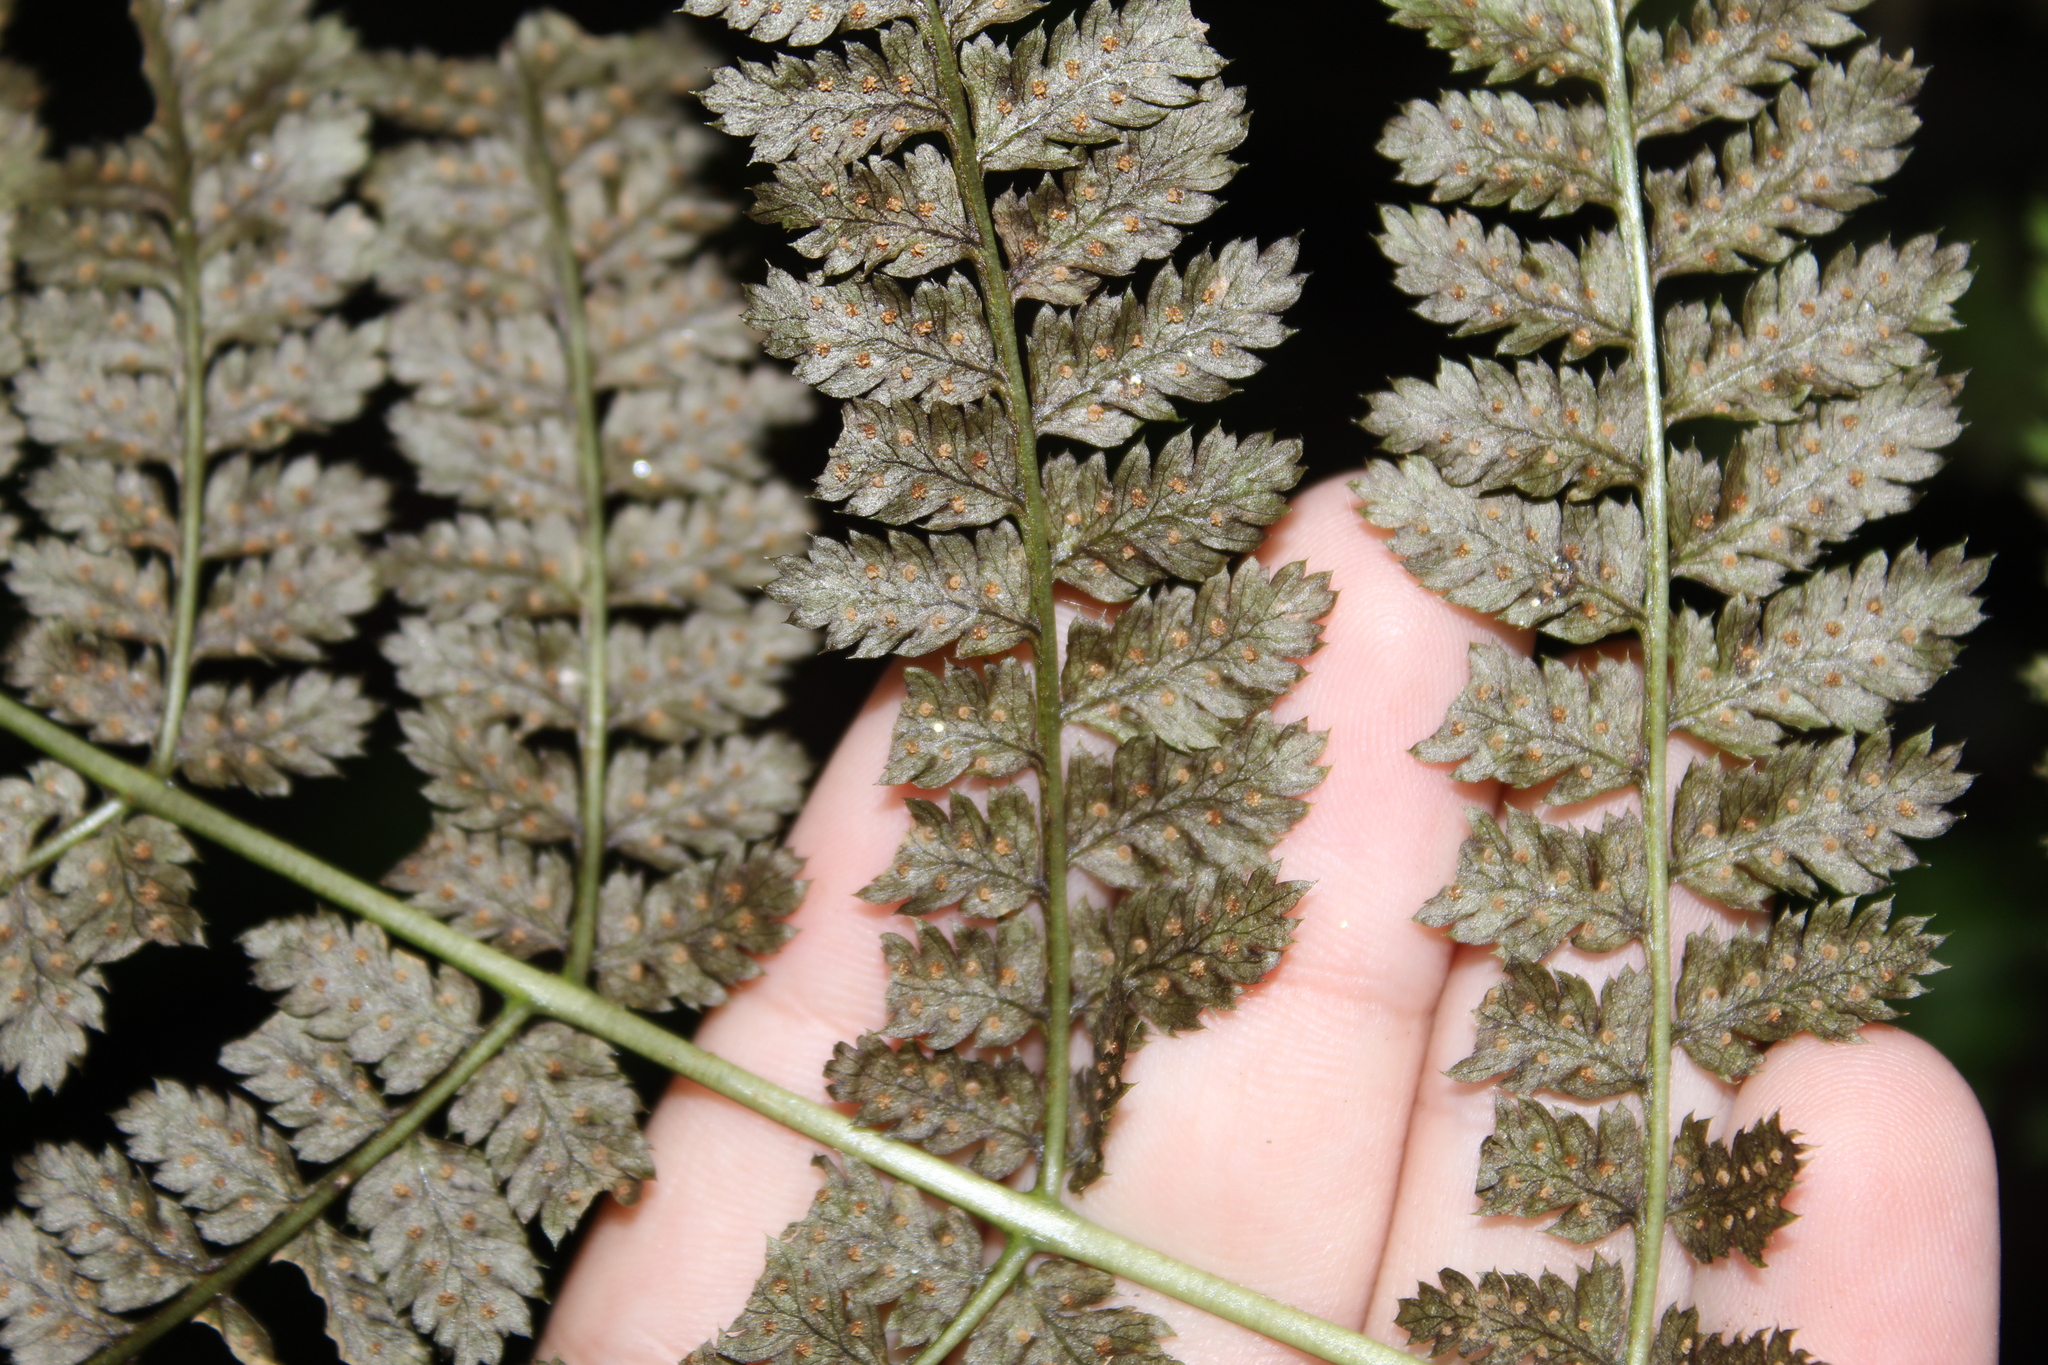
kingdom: Plantae
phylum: Tracheophyta
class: Polypodiopsida
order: Polypodiales
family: Dryopteridaceae
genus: Dryopteris
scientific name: Dryopteris campyloptera
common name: Mountain wood fern
